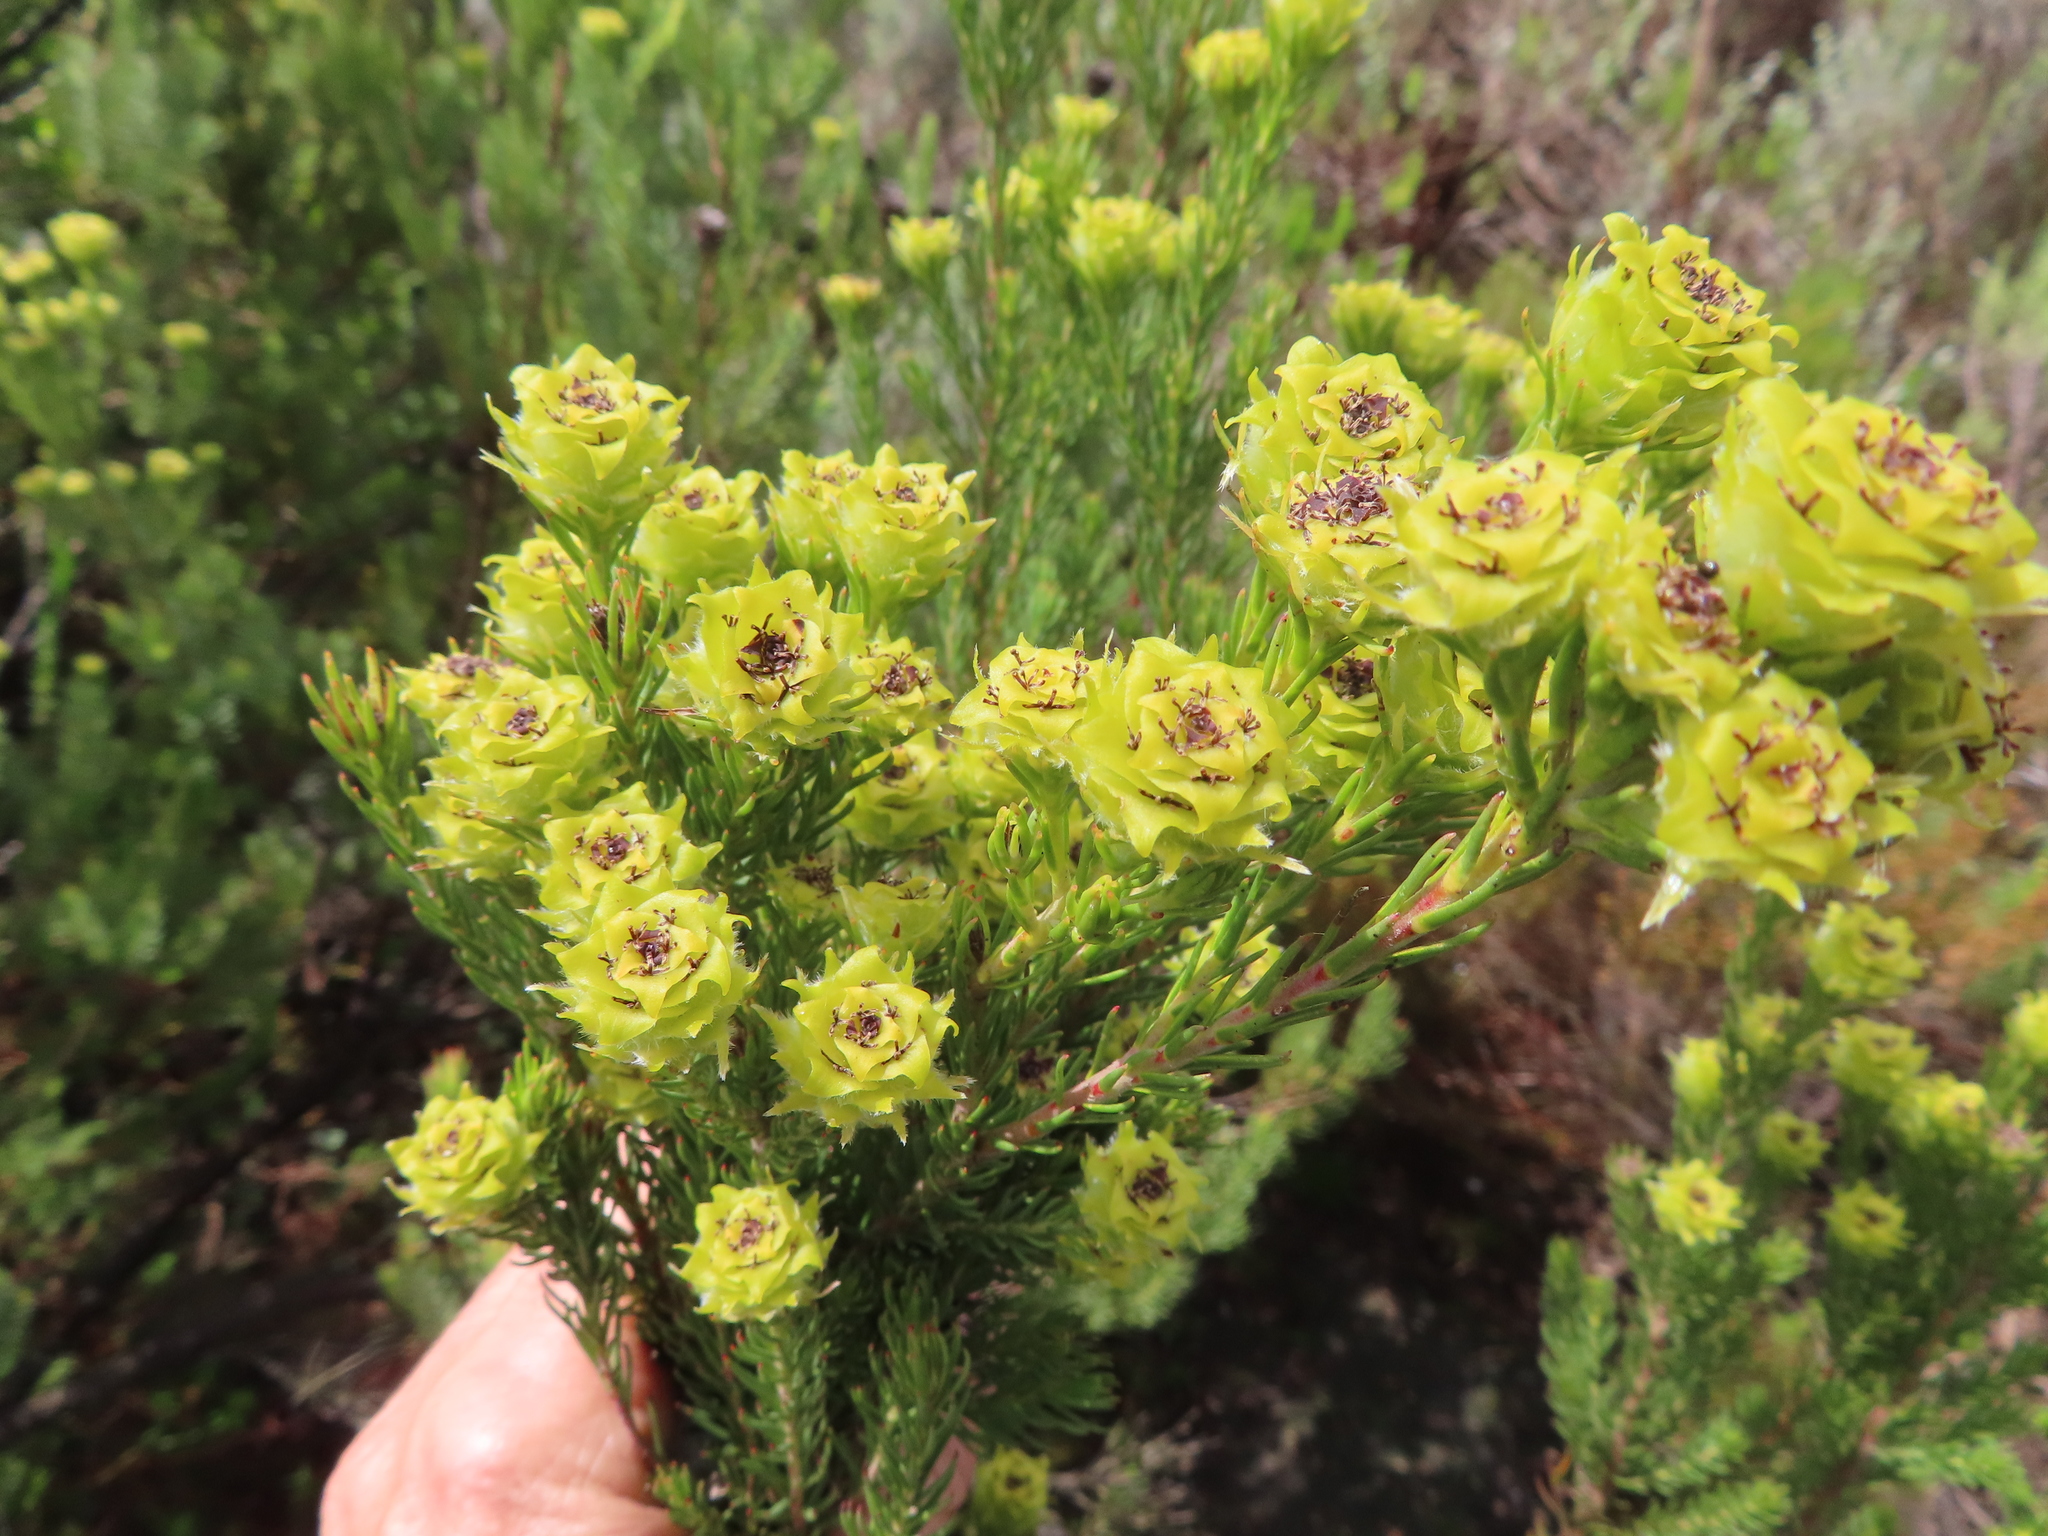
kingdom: Plantae
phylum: Tracheophyta
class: Magnoliopsida
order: Proteales
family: Proteaceae
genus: Leucadendron
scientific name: Leucadendron laxum
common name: Bredasdorp conebush
